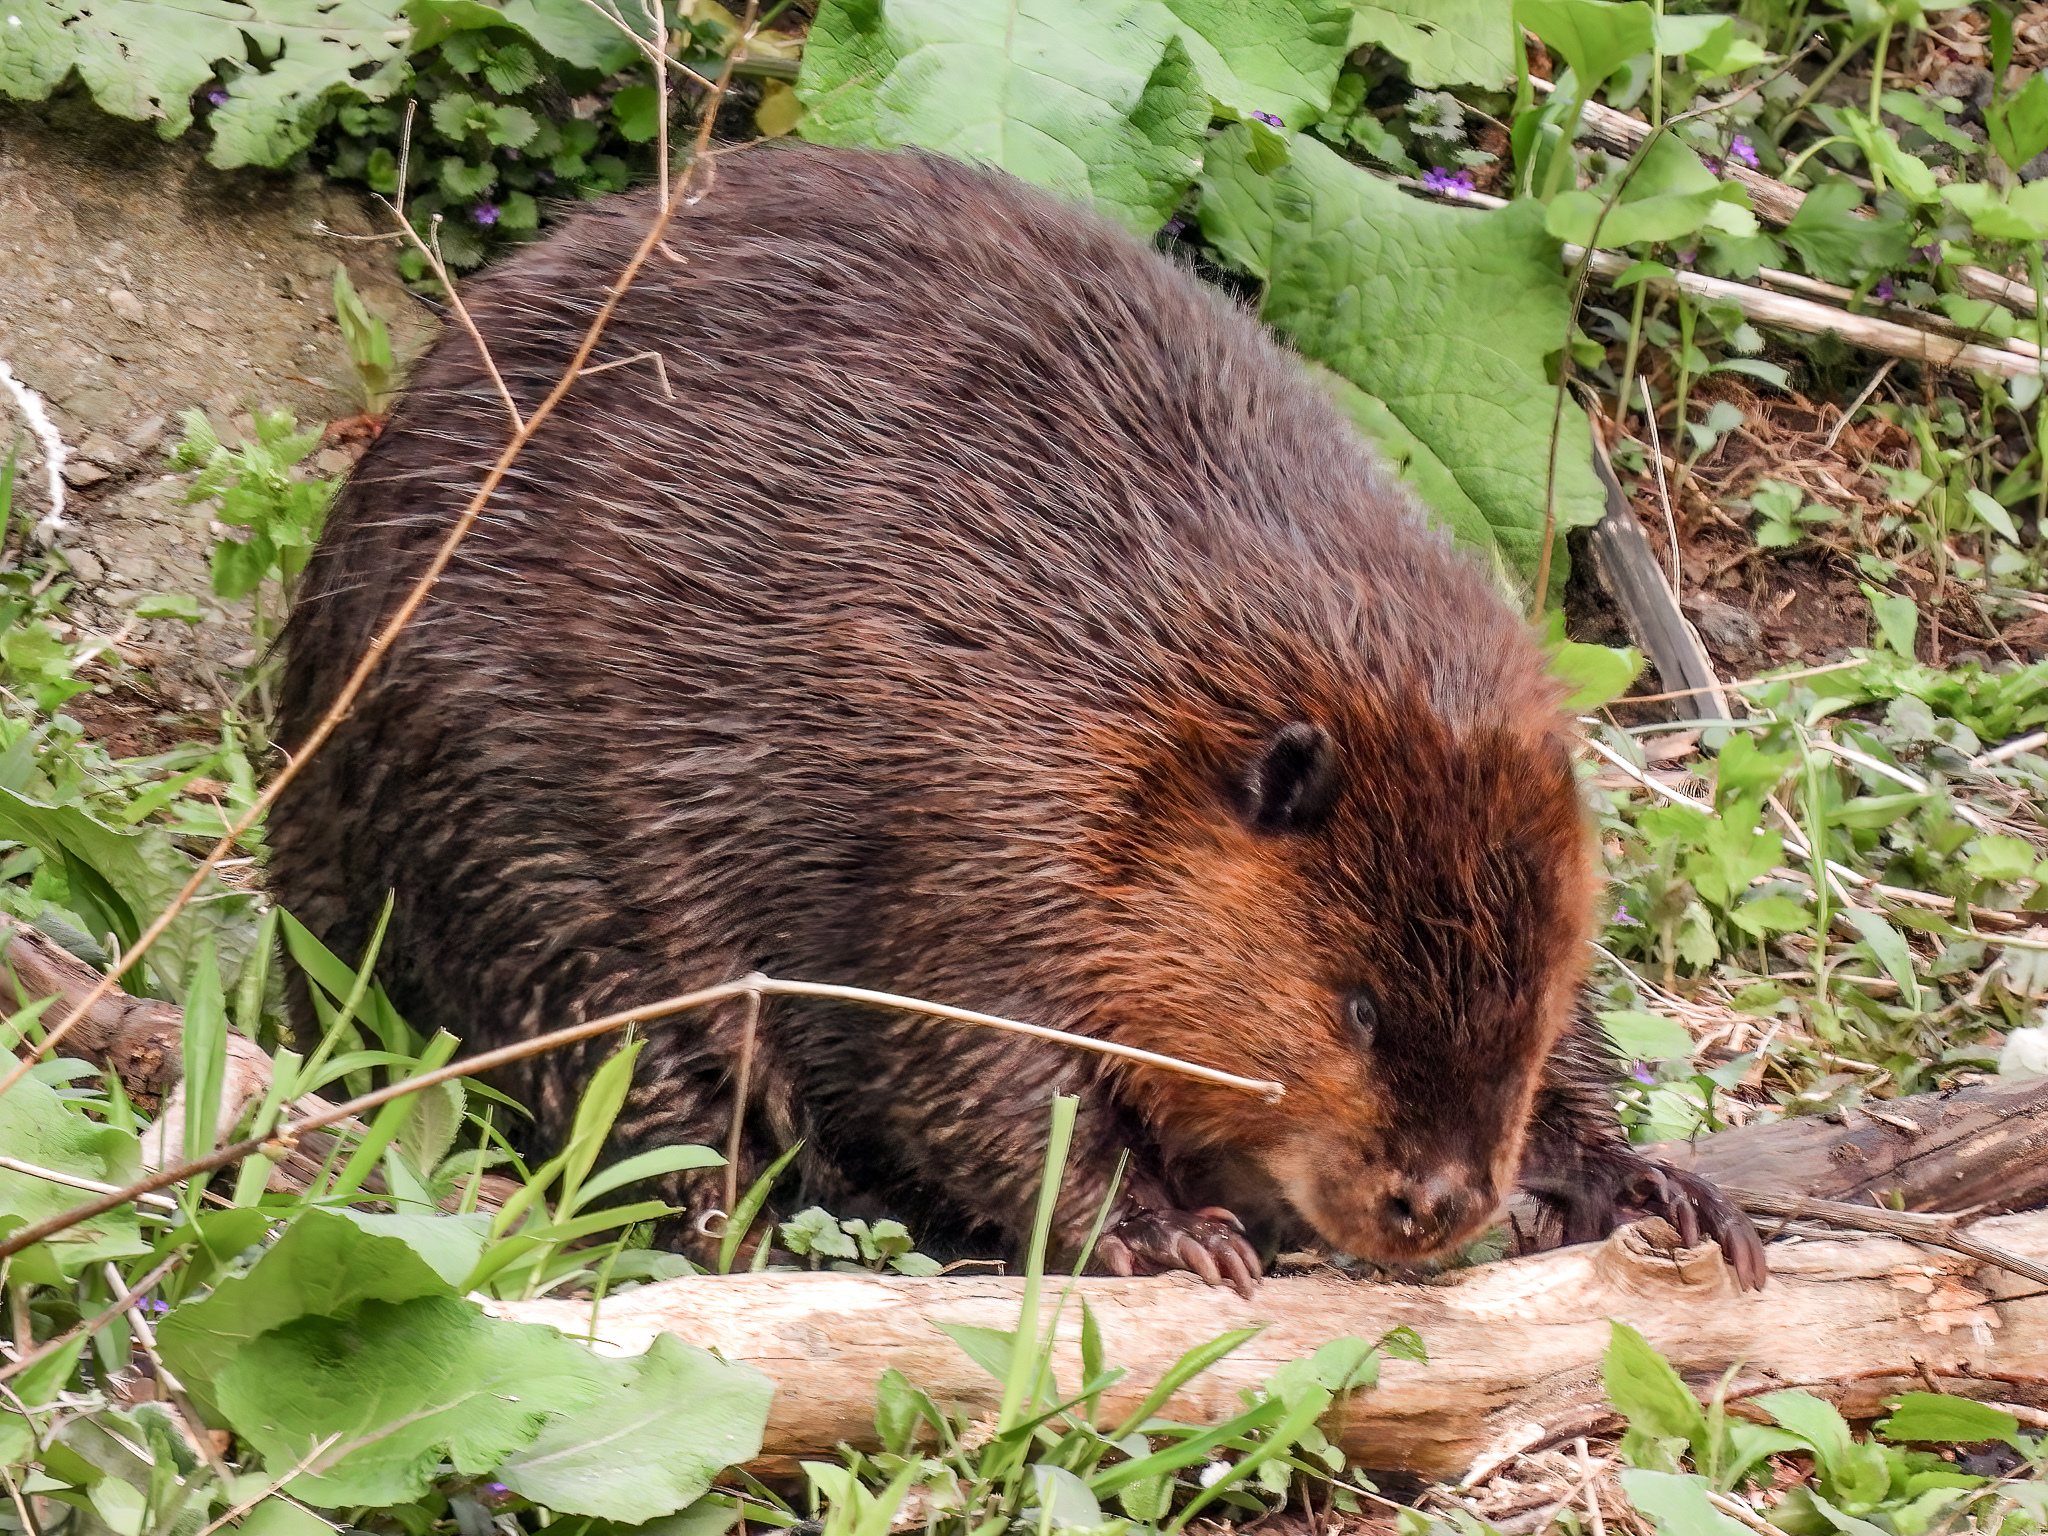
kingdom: Animalia
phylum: Chordata
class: Mammalia
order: Rodentia
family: Castoridae
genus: Castor
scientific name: Castor canadensis
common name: American beaver
